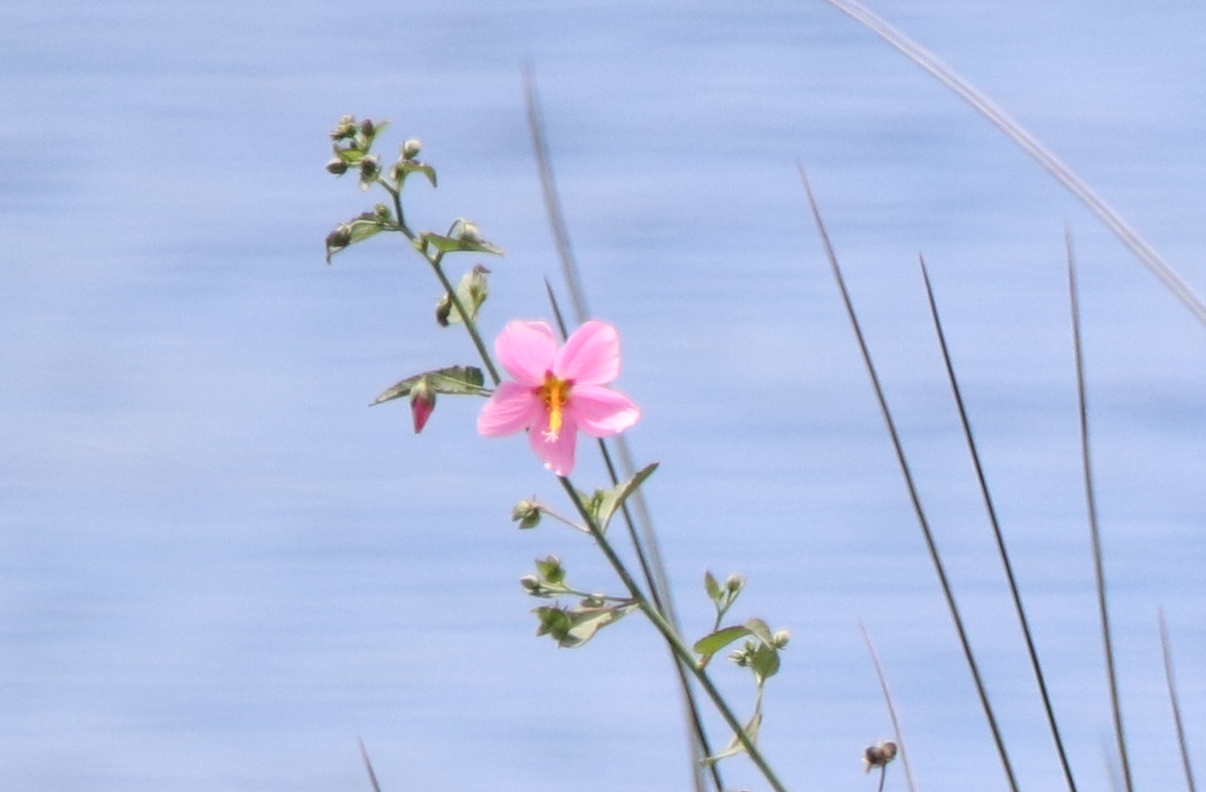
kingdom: Plantae
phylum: Tracheophyta
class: Magnoliopsida
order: Malvales
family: Malvaceae
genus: Kosteletzkya
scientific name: Kosteletzkya pentacarpos
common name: Virginia saltmarsh mallow
